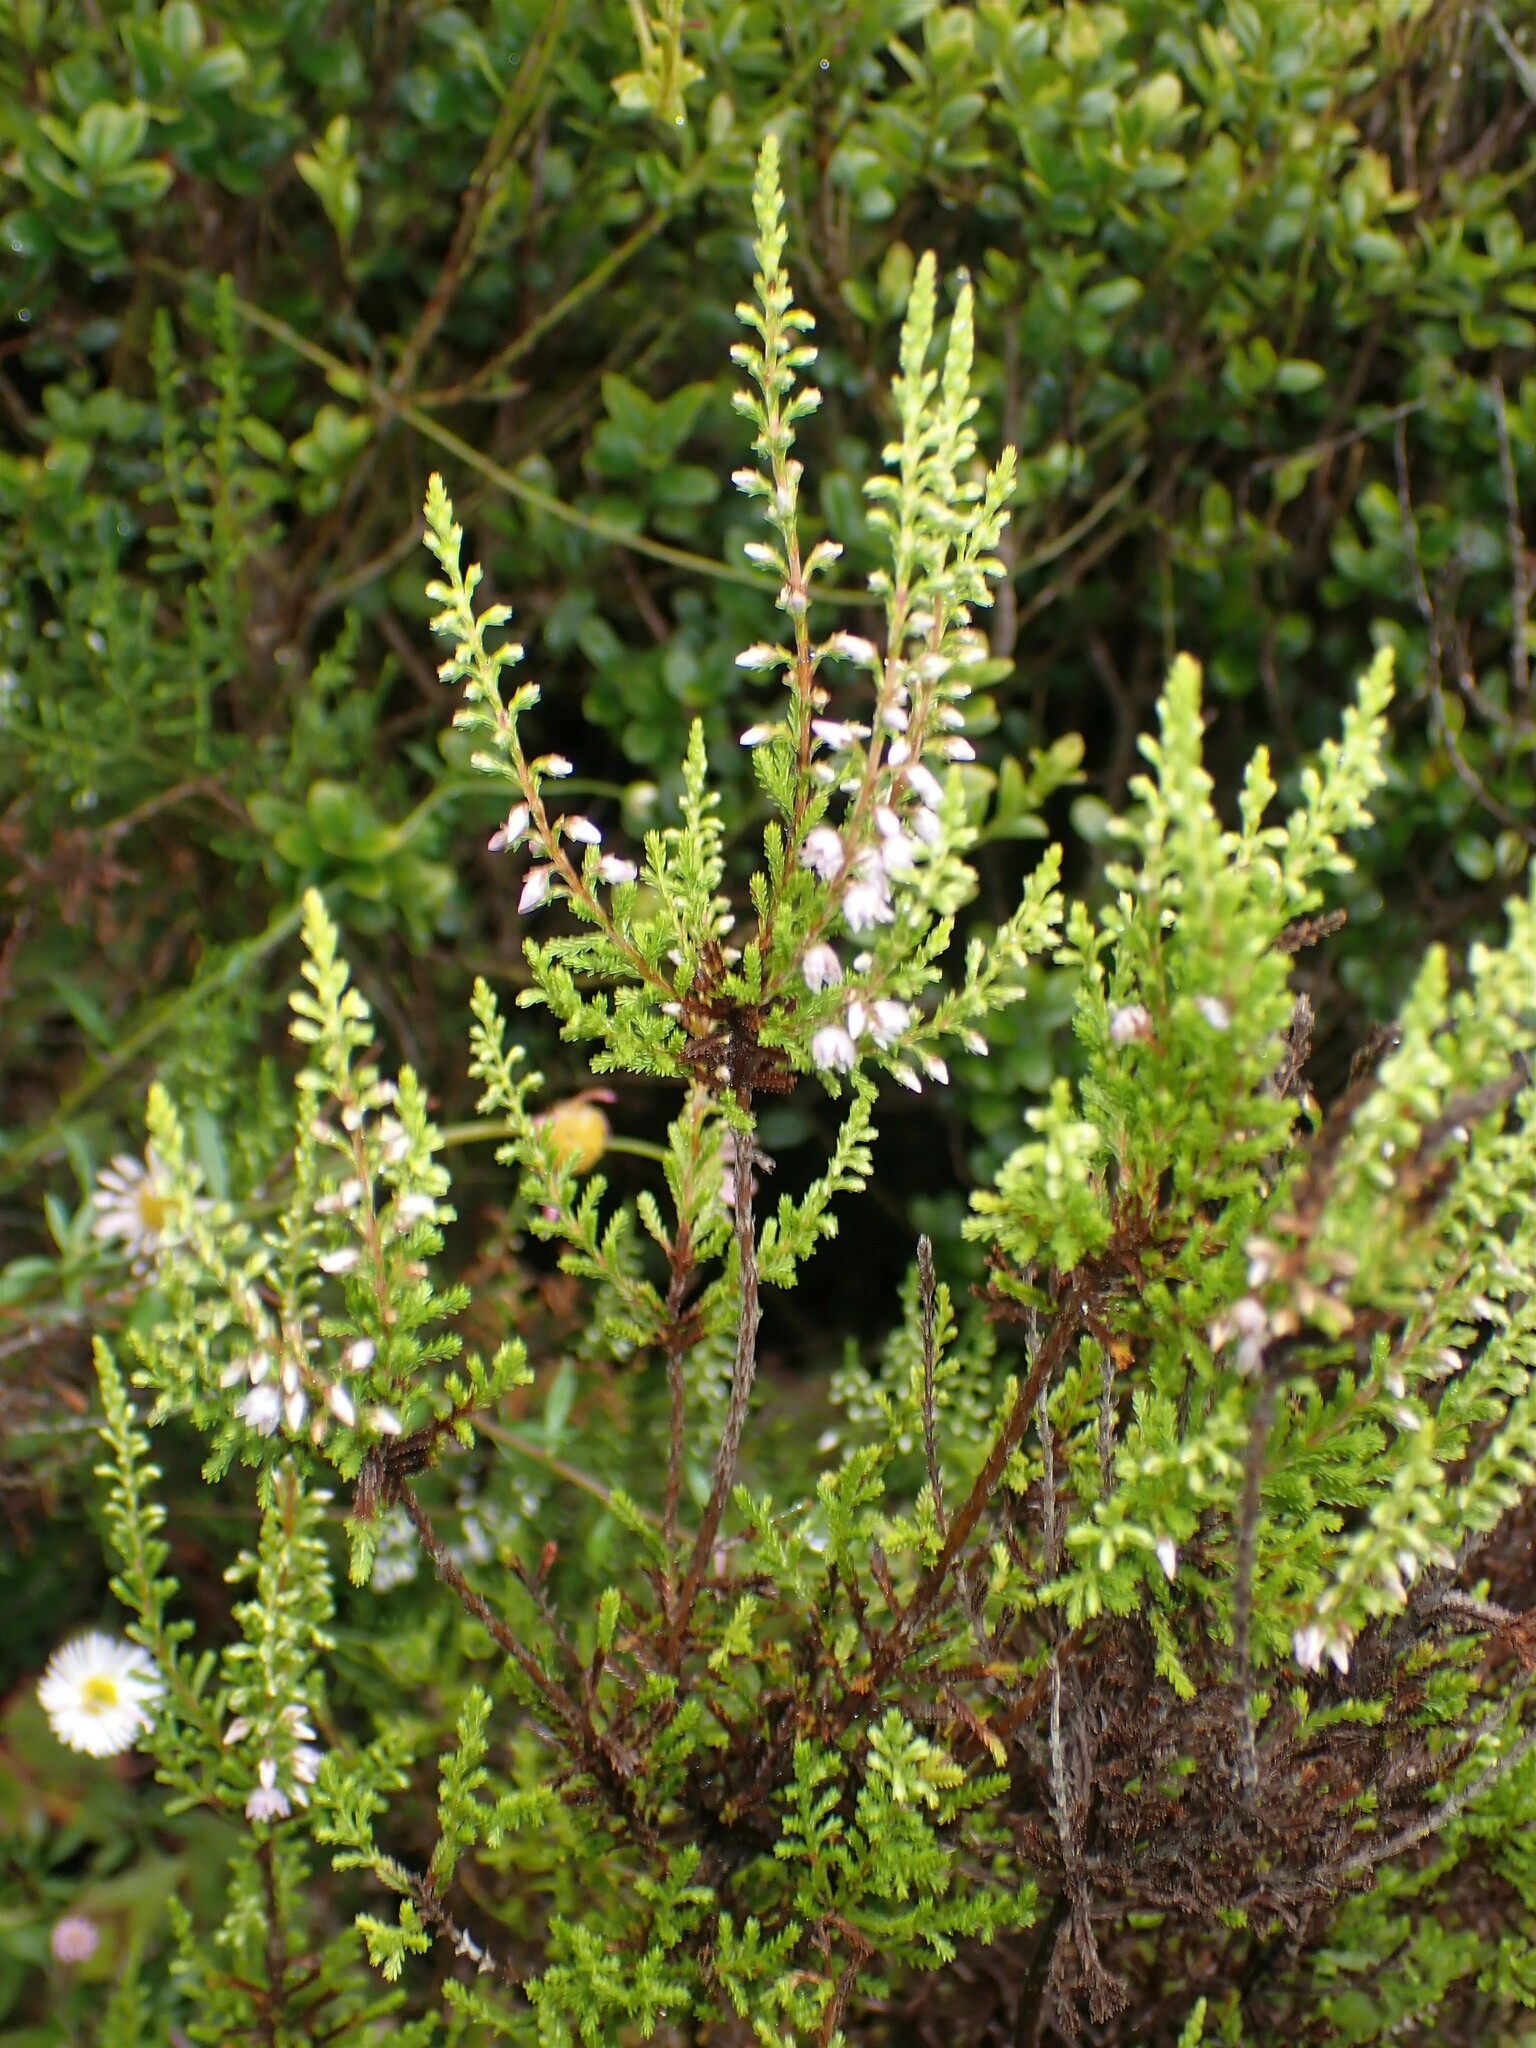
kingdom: Plantae
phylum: Tracheophyta
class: Magnoliopsida
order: Ericales
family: Ericaceae
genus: Calluna
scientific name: Calluna vulgaris
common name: Heather
